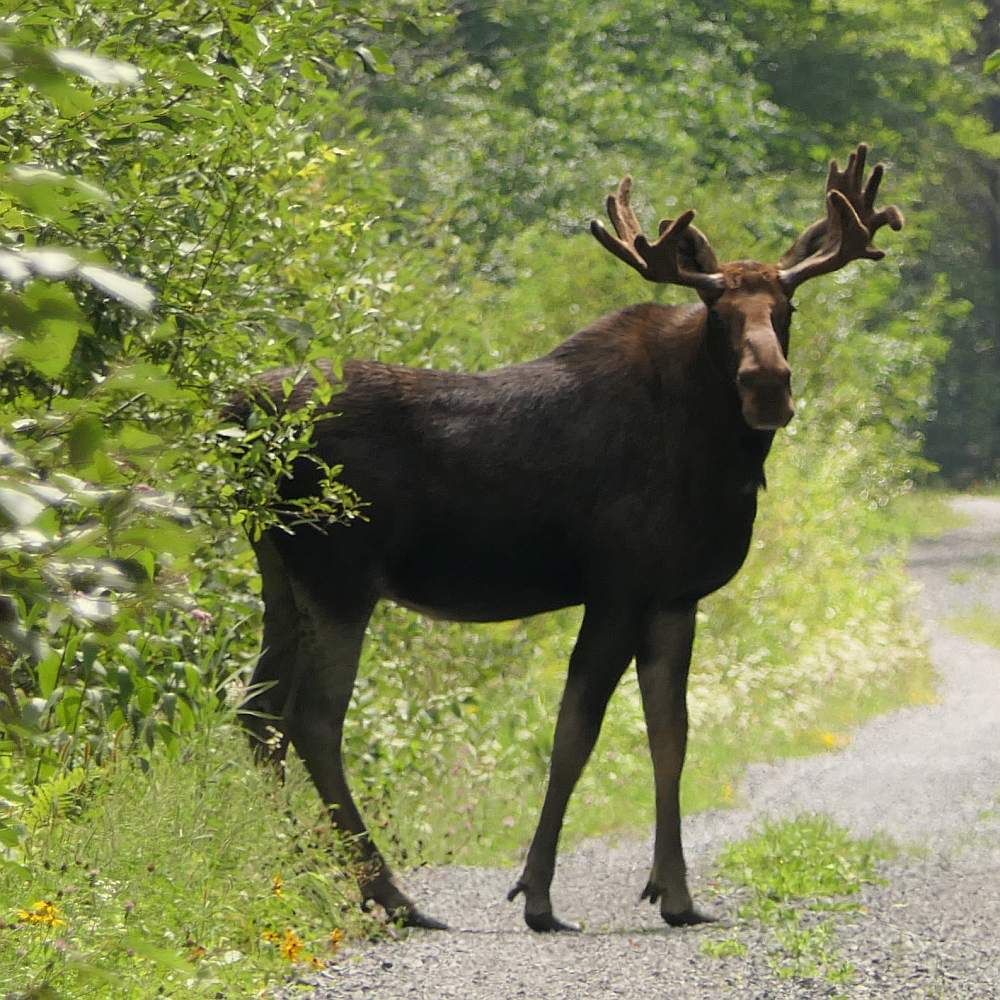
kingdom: Animalia
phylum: Chordata
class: Mammalia
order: Artiodactyla
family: Cervidae
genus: Alces
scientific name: Alces alces
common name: Moose
